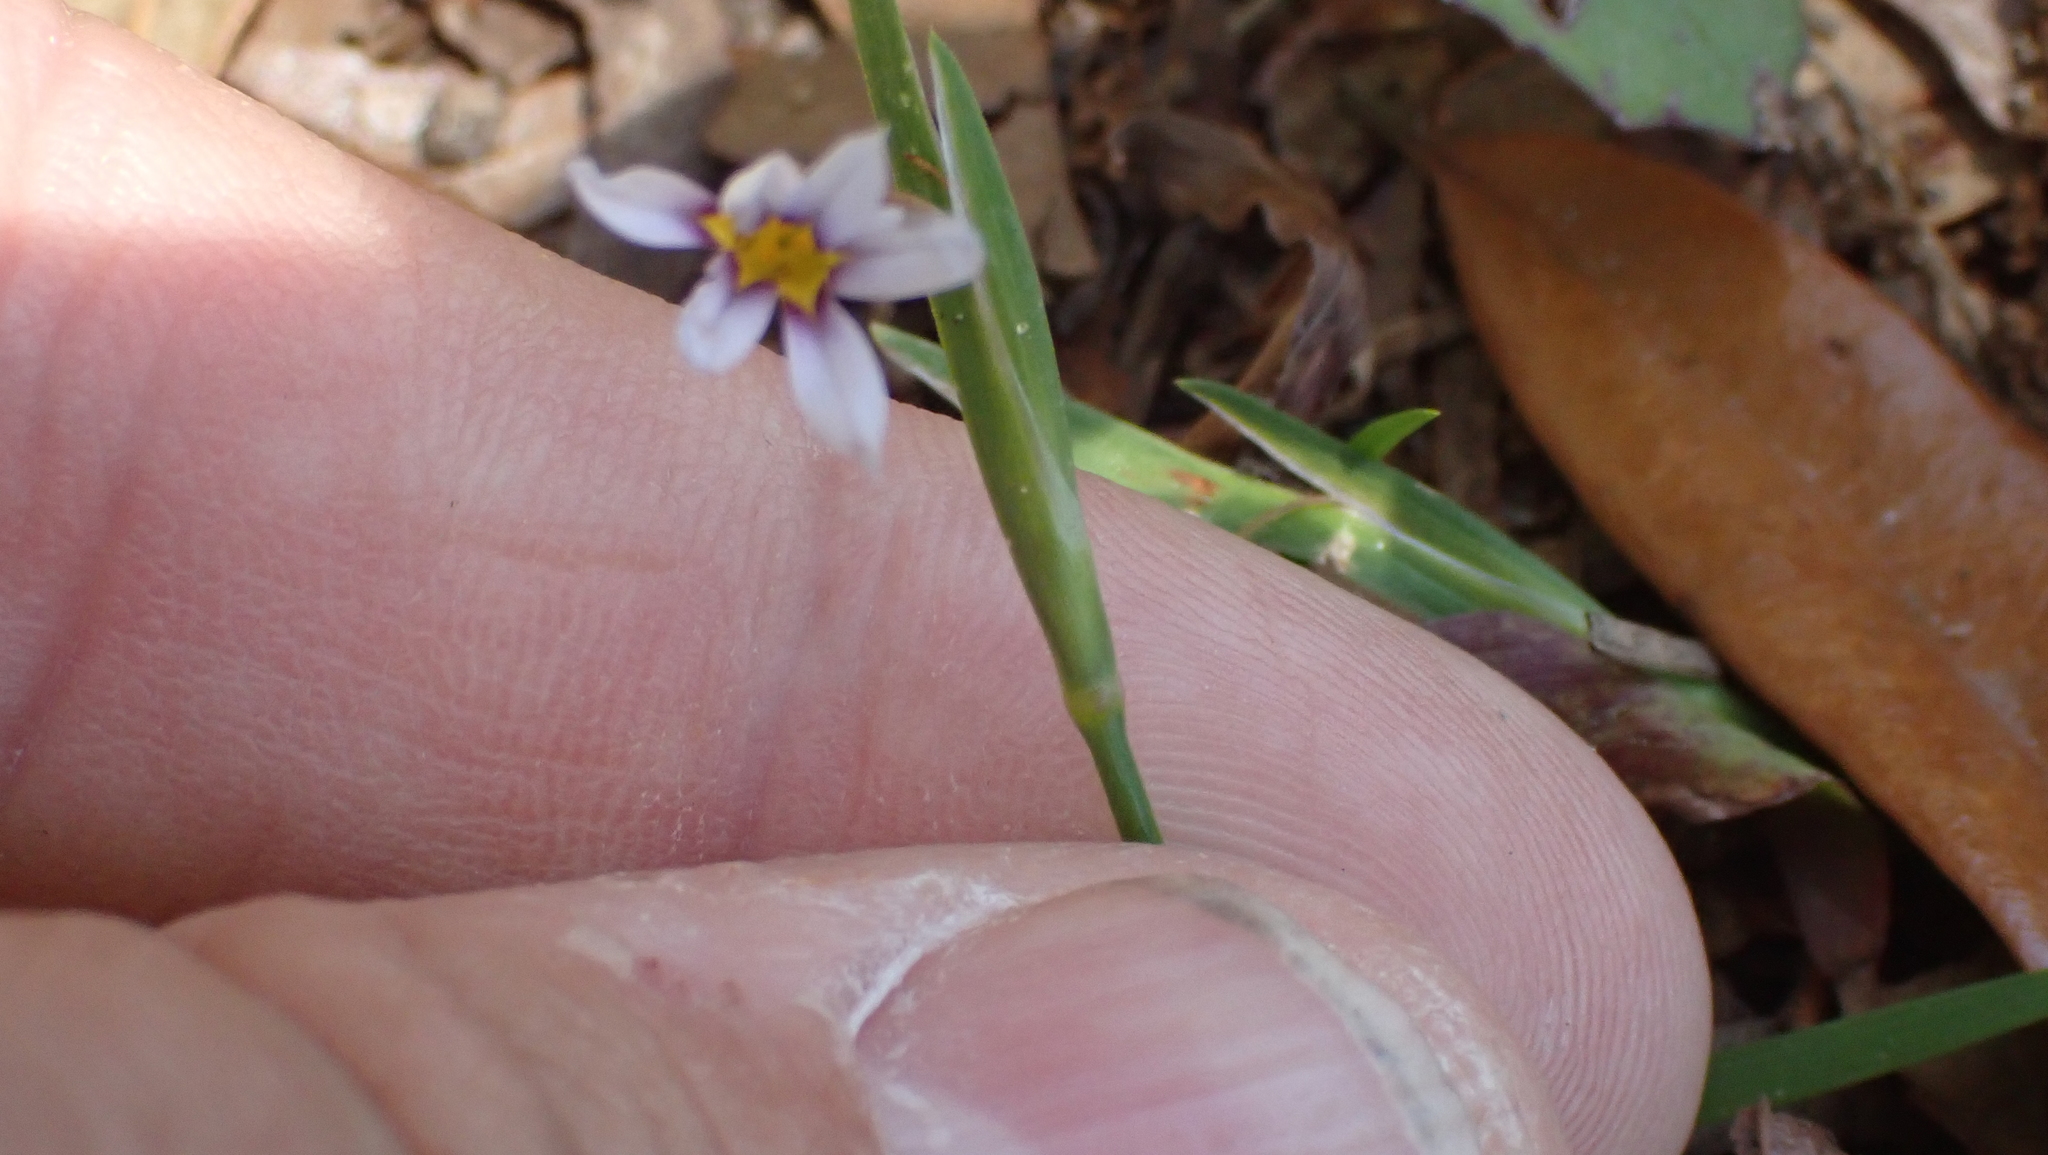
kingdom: Plantae
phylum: Tracheophyta
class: Liliopsida
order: Asparagales
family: Iridaceae
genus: Sisyrinchium
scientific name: Sisyrinchium micranthum
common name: Bermuda pigroot
